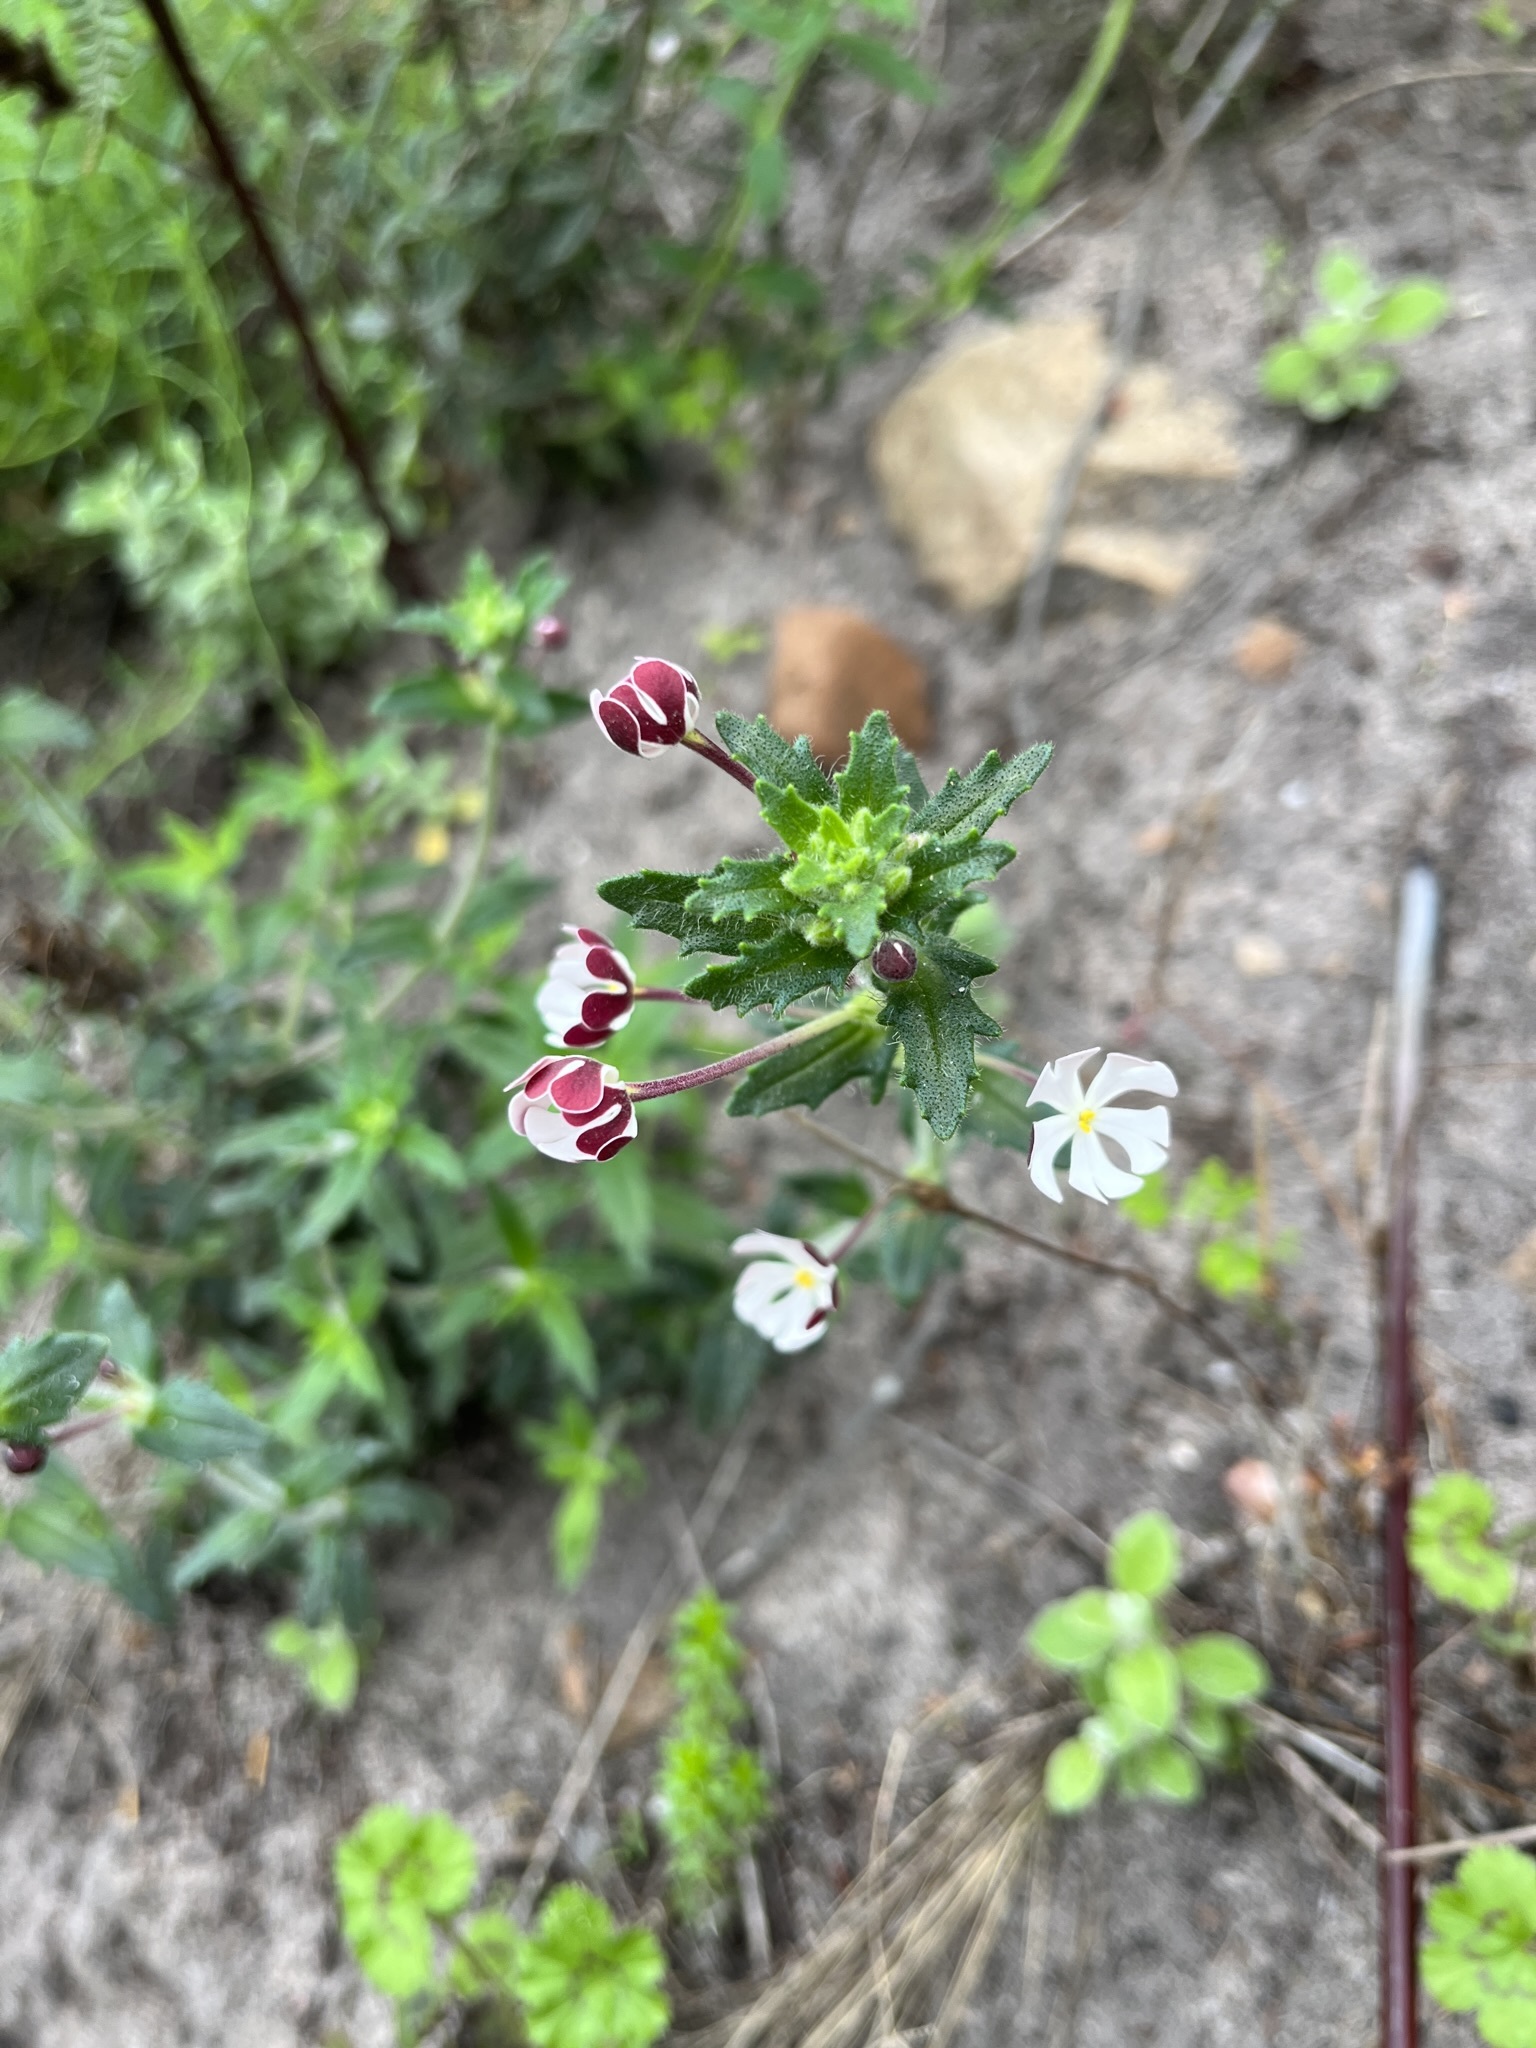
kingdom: Plantae
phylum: Tracheophyta
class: Magnoliopsida
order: Lamiales
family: Scrophulariaceae
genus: Zaluzianskya
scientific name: Zaluzianskya capensis
